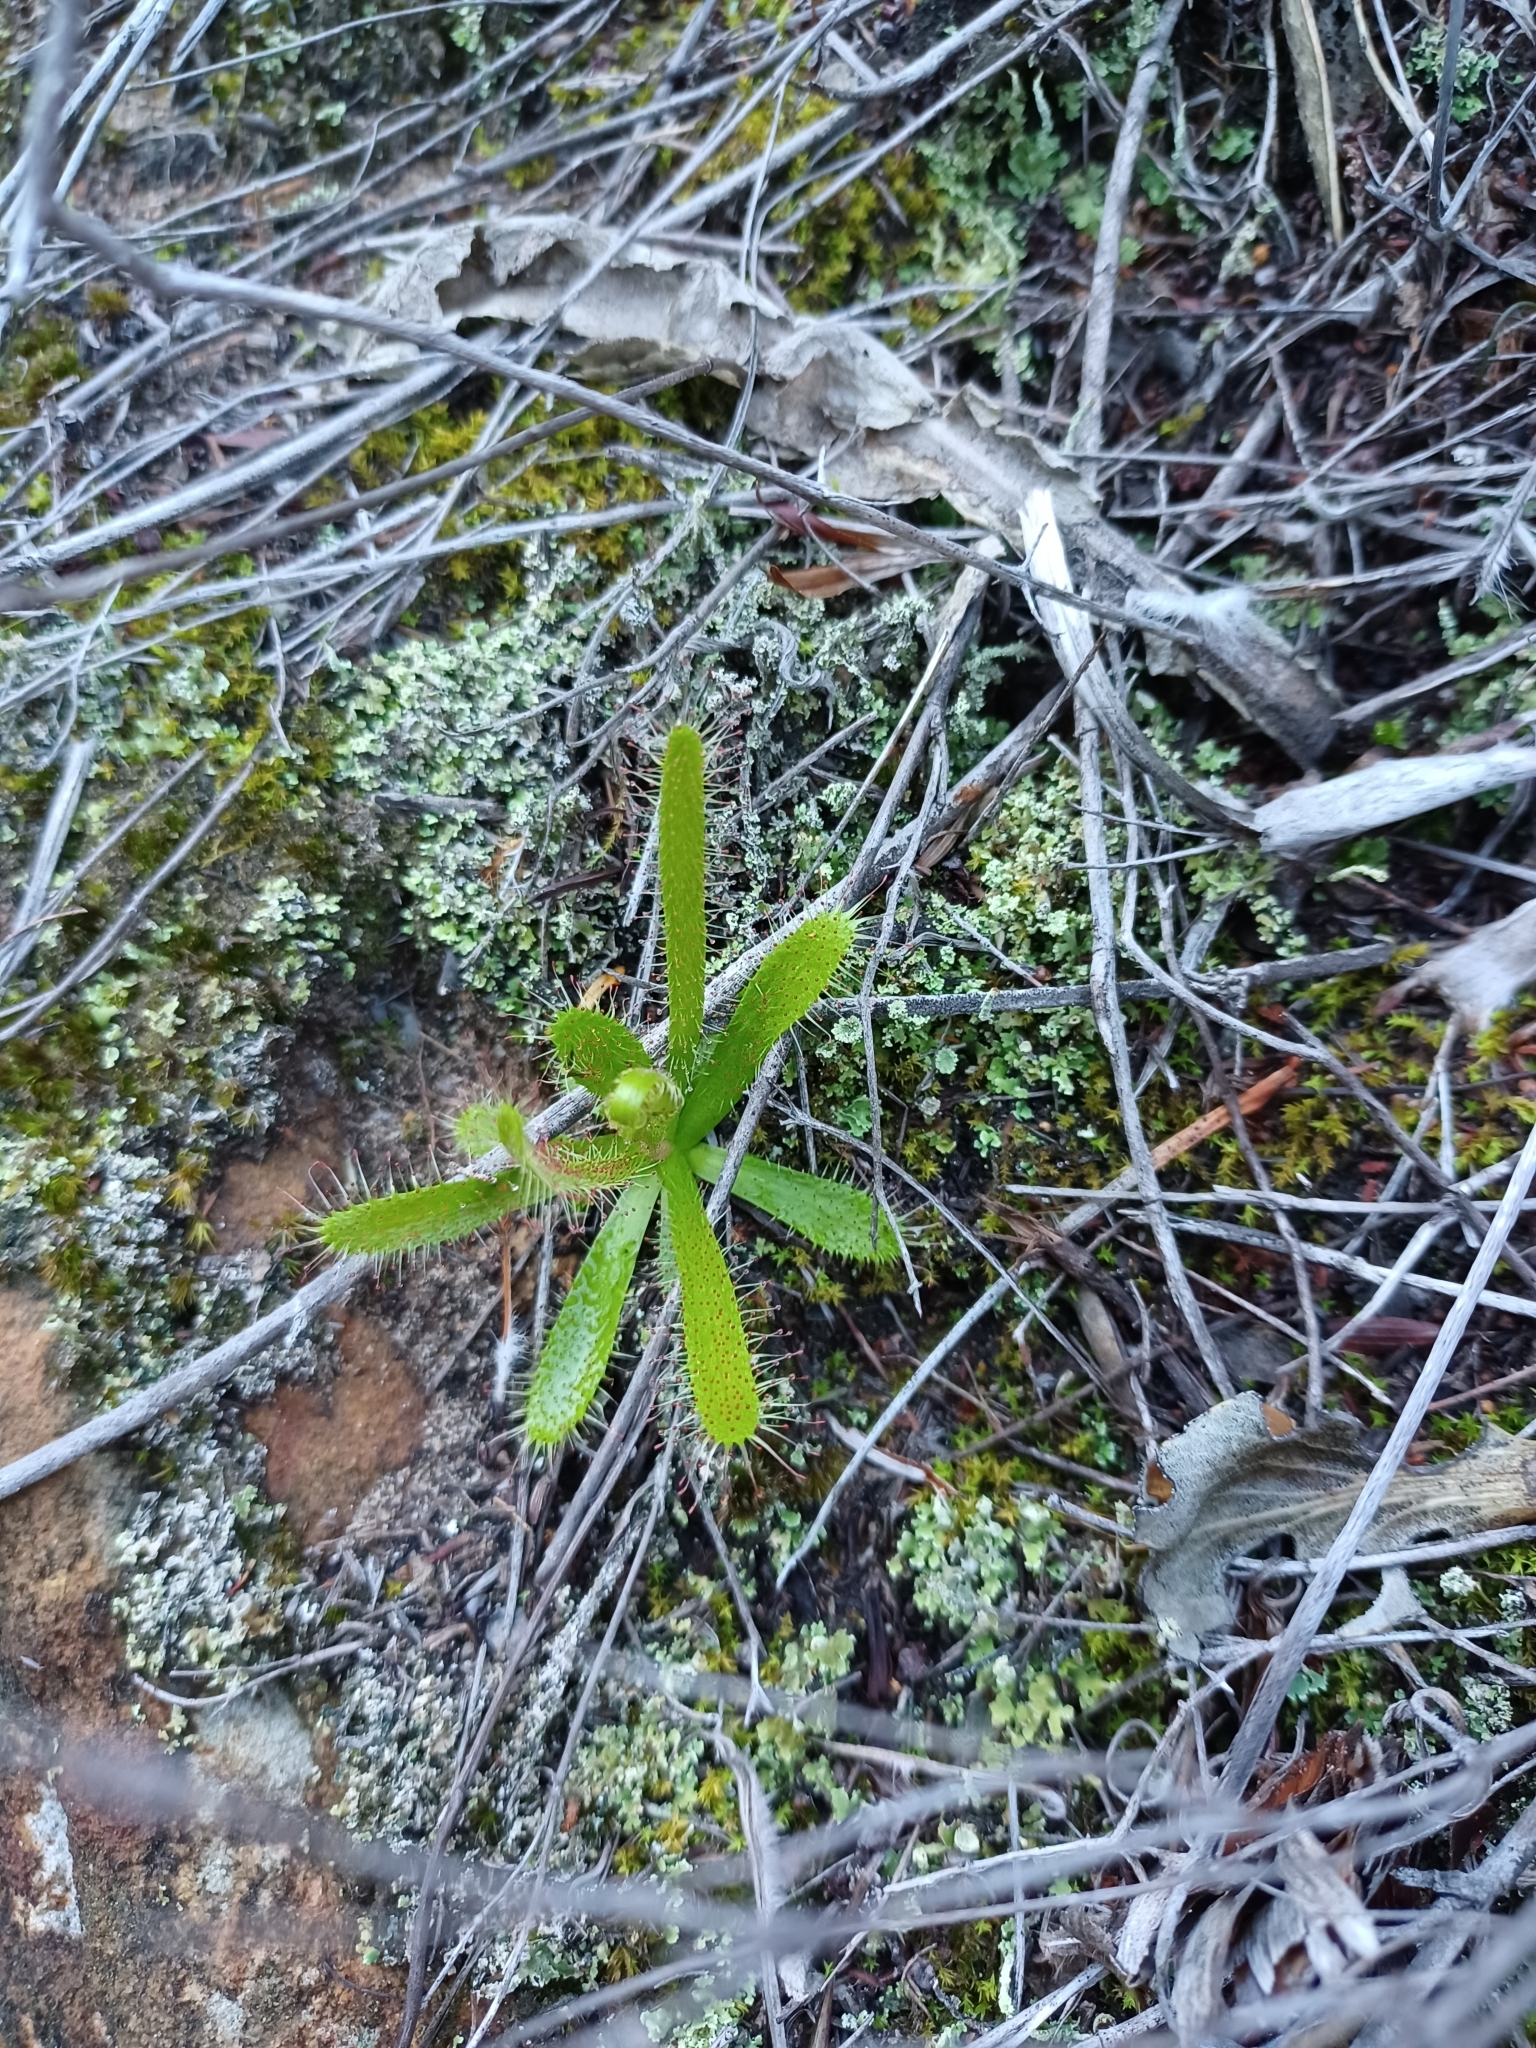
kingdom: Plantae
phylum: Tracheophyta
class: Magnoliopsida
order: Caryophyllales
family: Droseraceae
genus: Drosera
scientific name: Drosera liniflora
